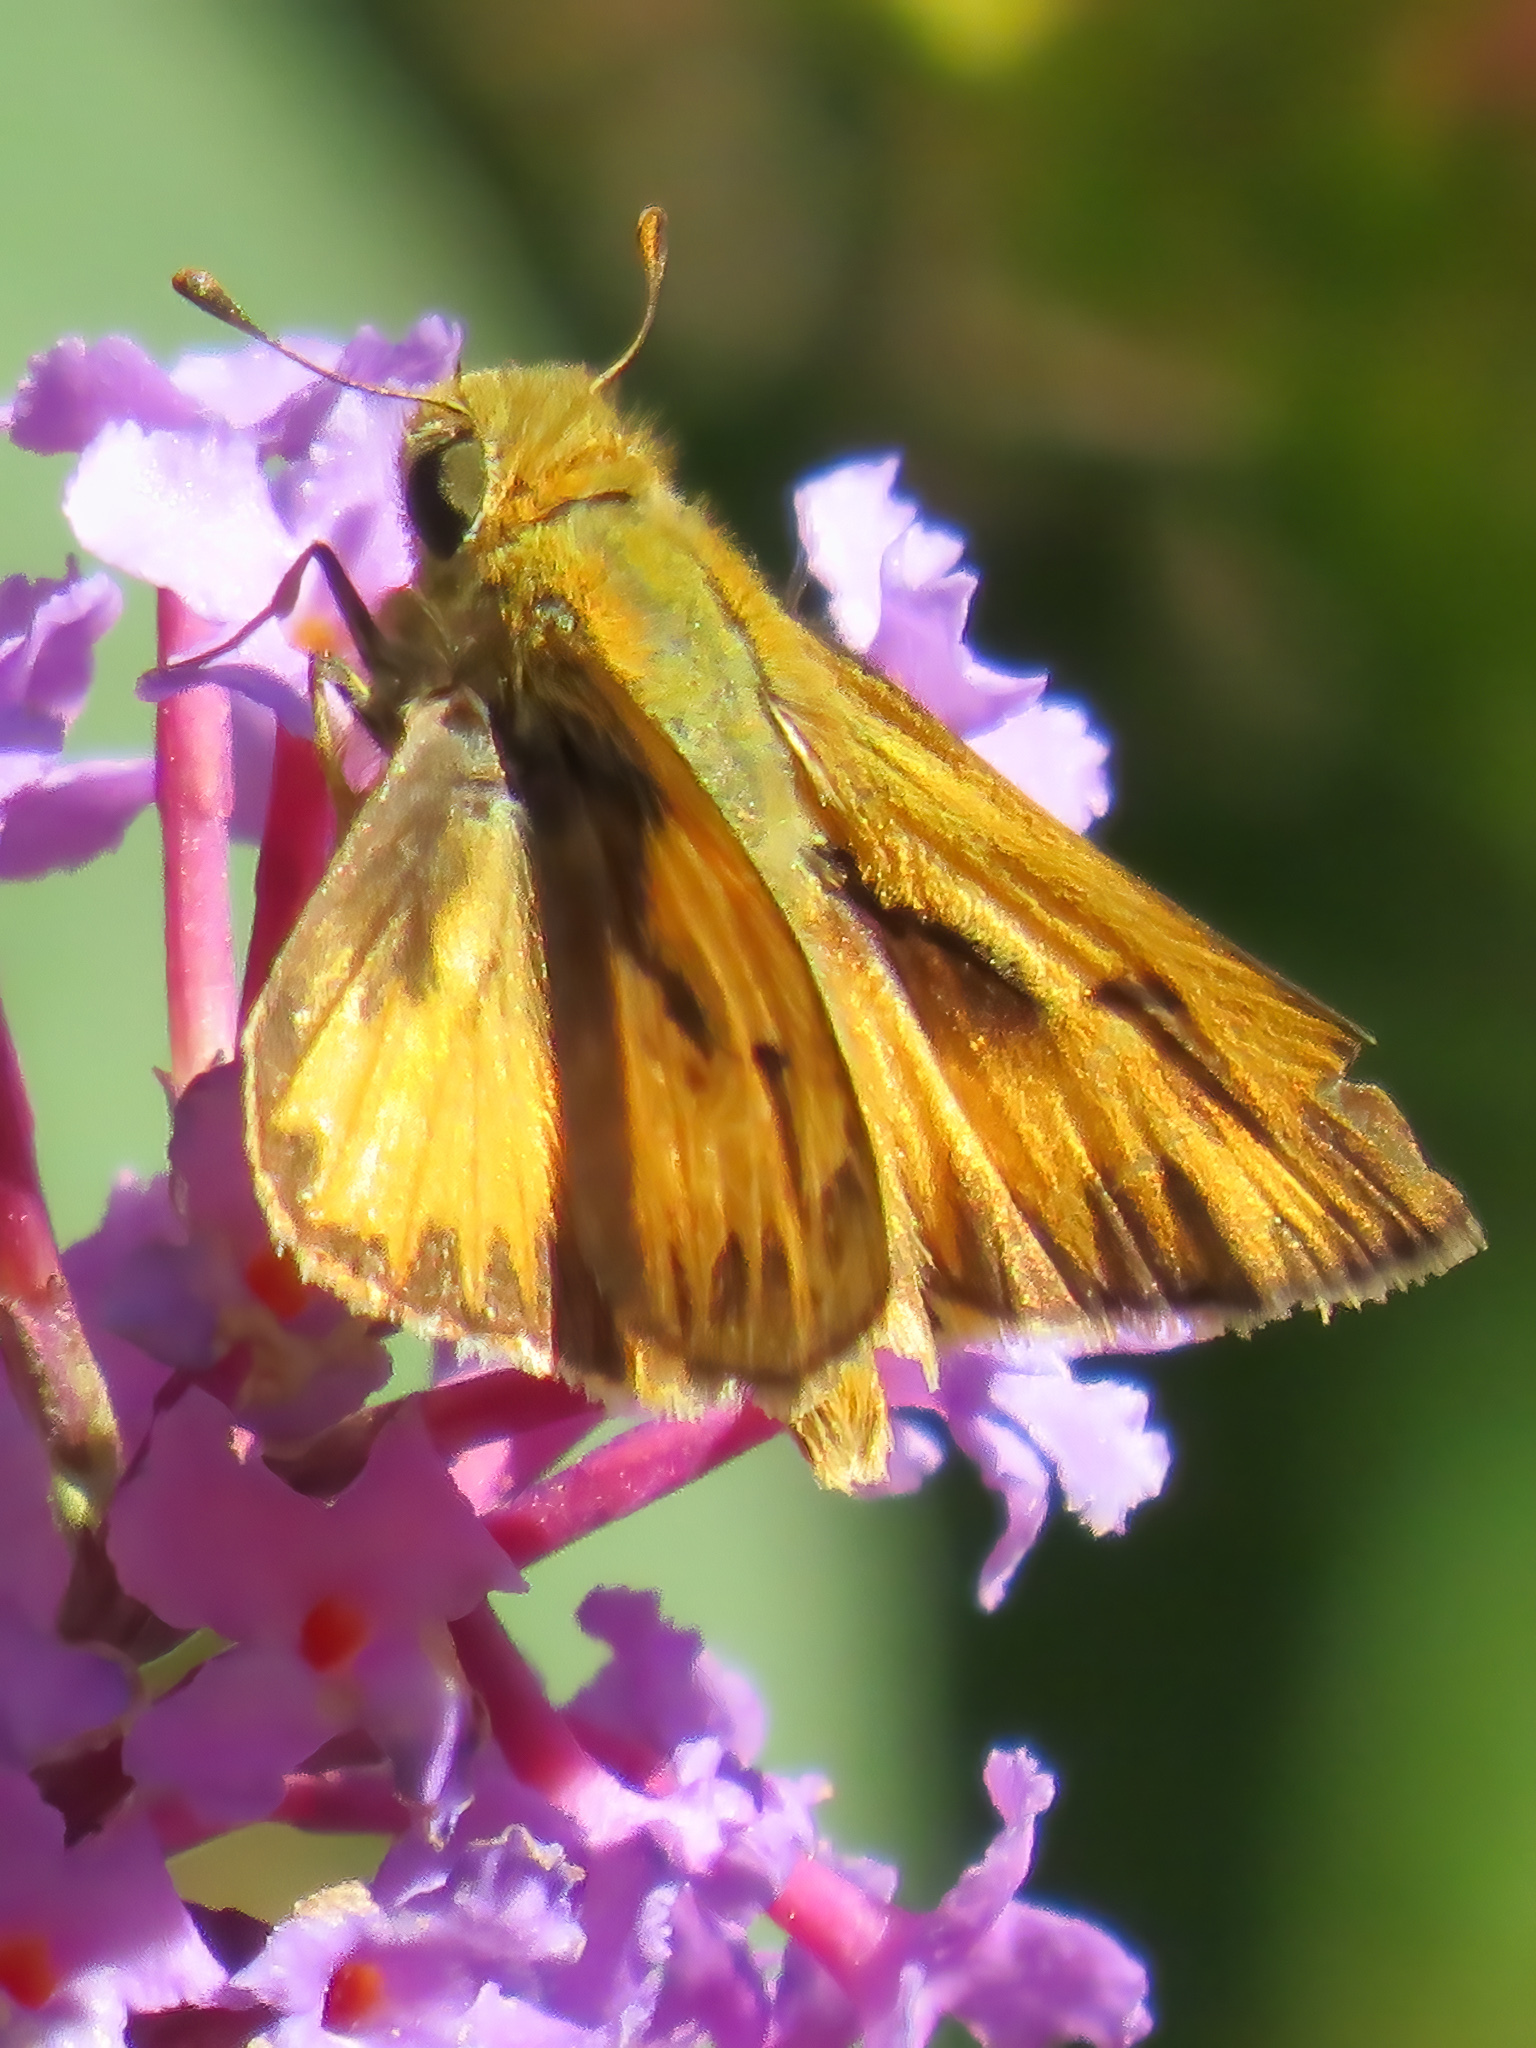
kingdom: Animalia
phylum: Arthropoda
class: Insecta
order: Lepidoptera
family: Hesperiidae
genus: Hylephila
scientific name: Hylephila phyleus
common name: Fiery skipper
